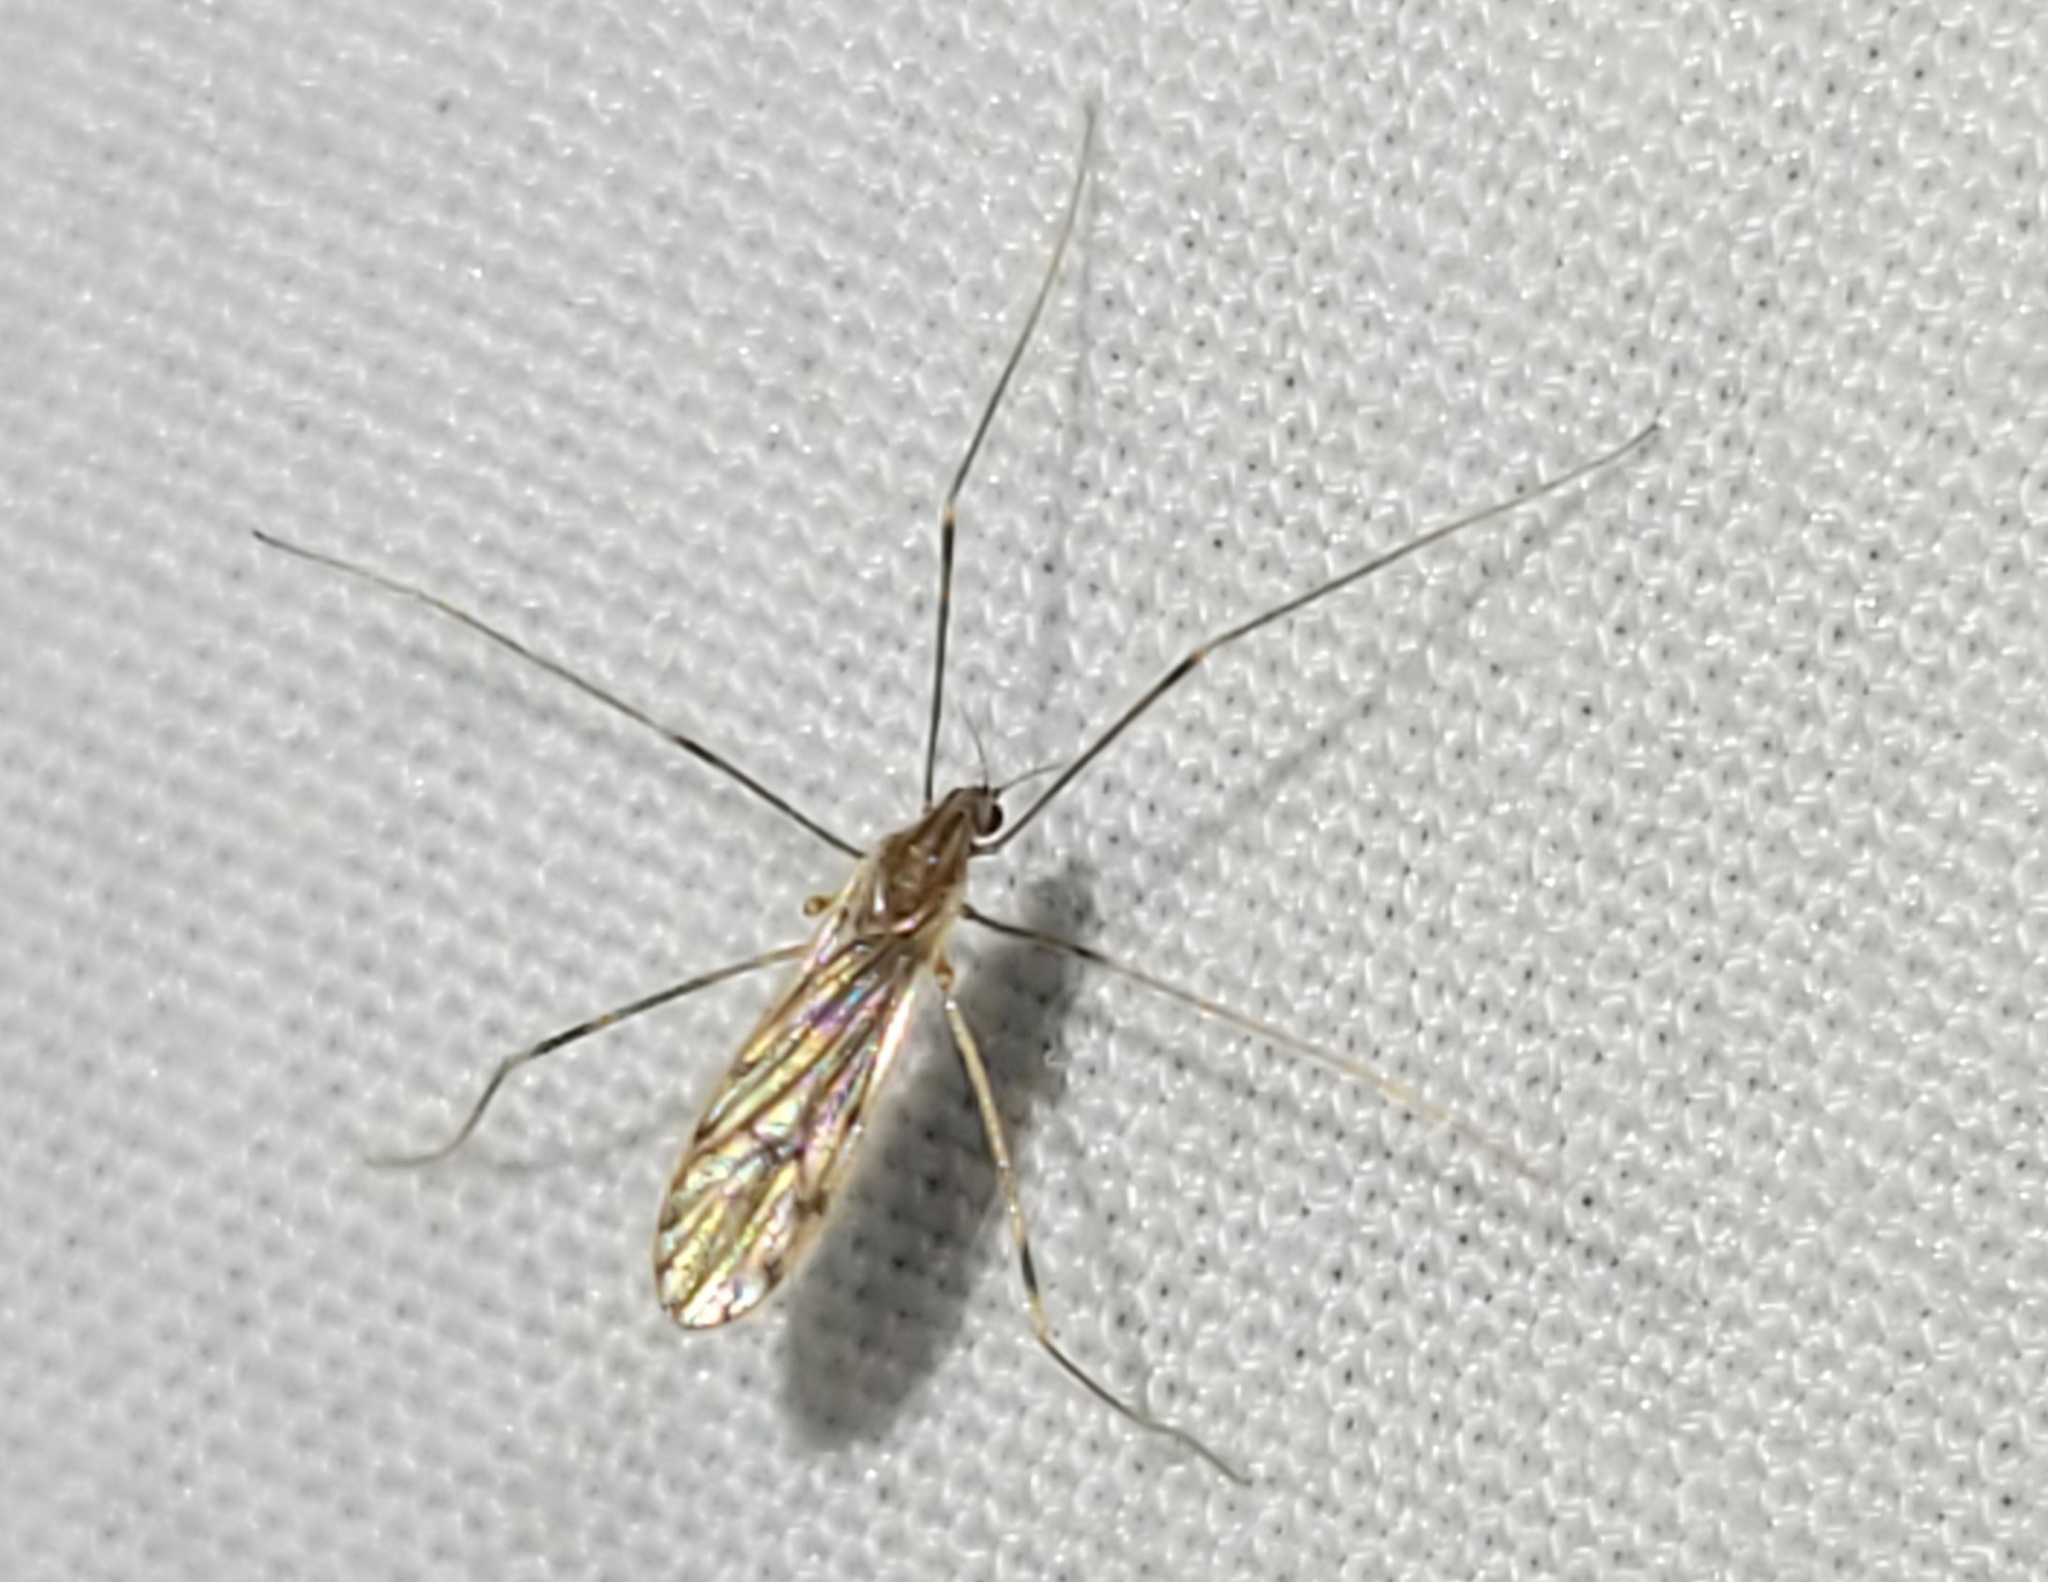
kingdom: Animalia
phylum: Arthropoda
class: Insecta
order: Diptera
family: Limoniidae
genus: Erioptera
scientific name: Erioptera parva
